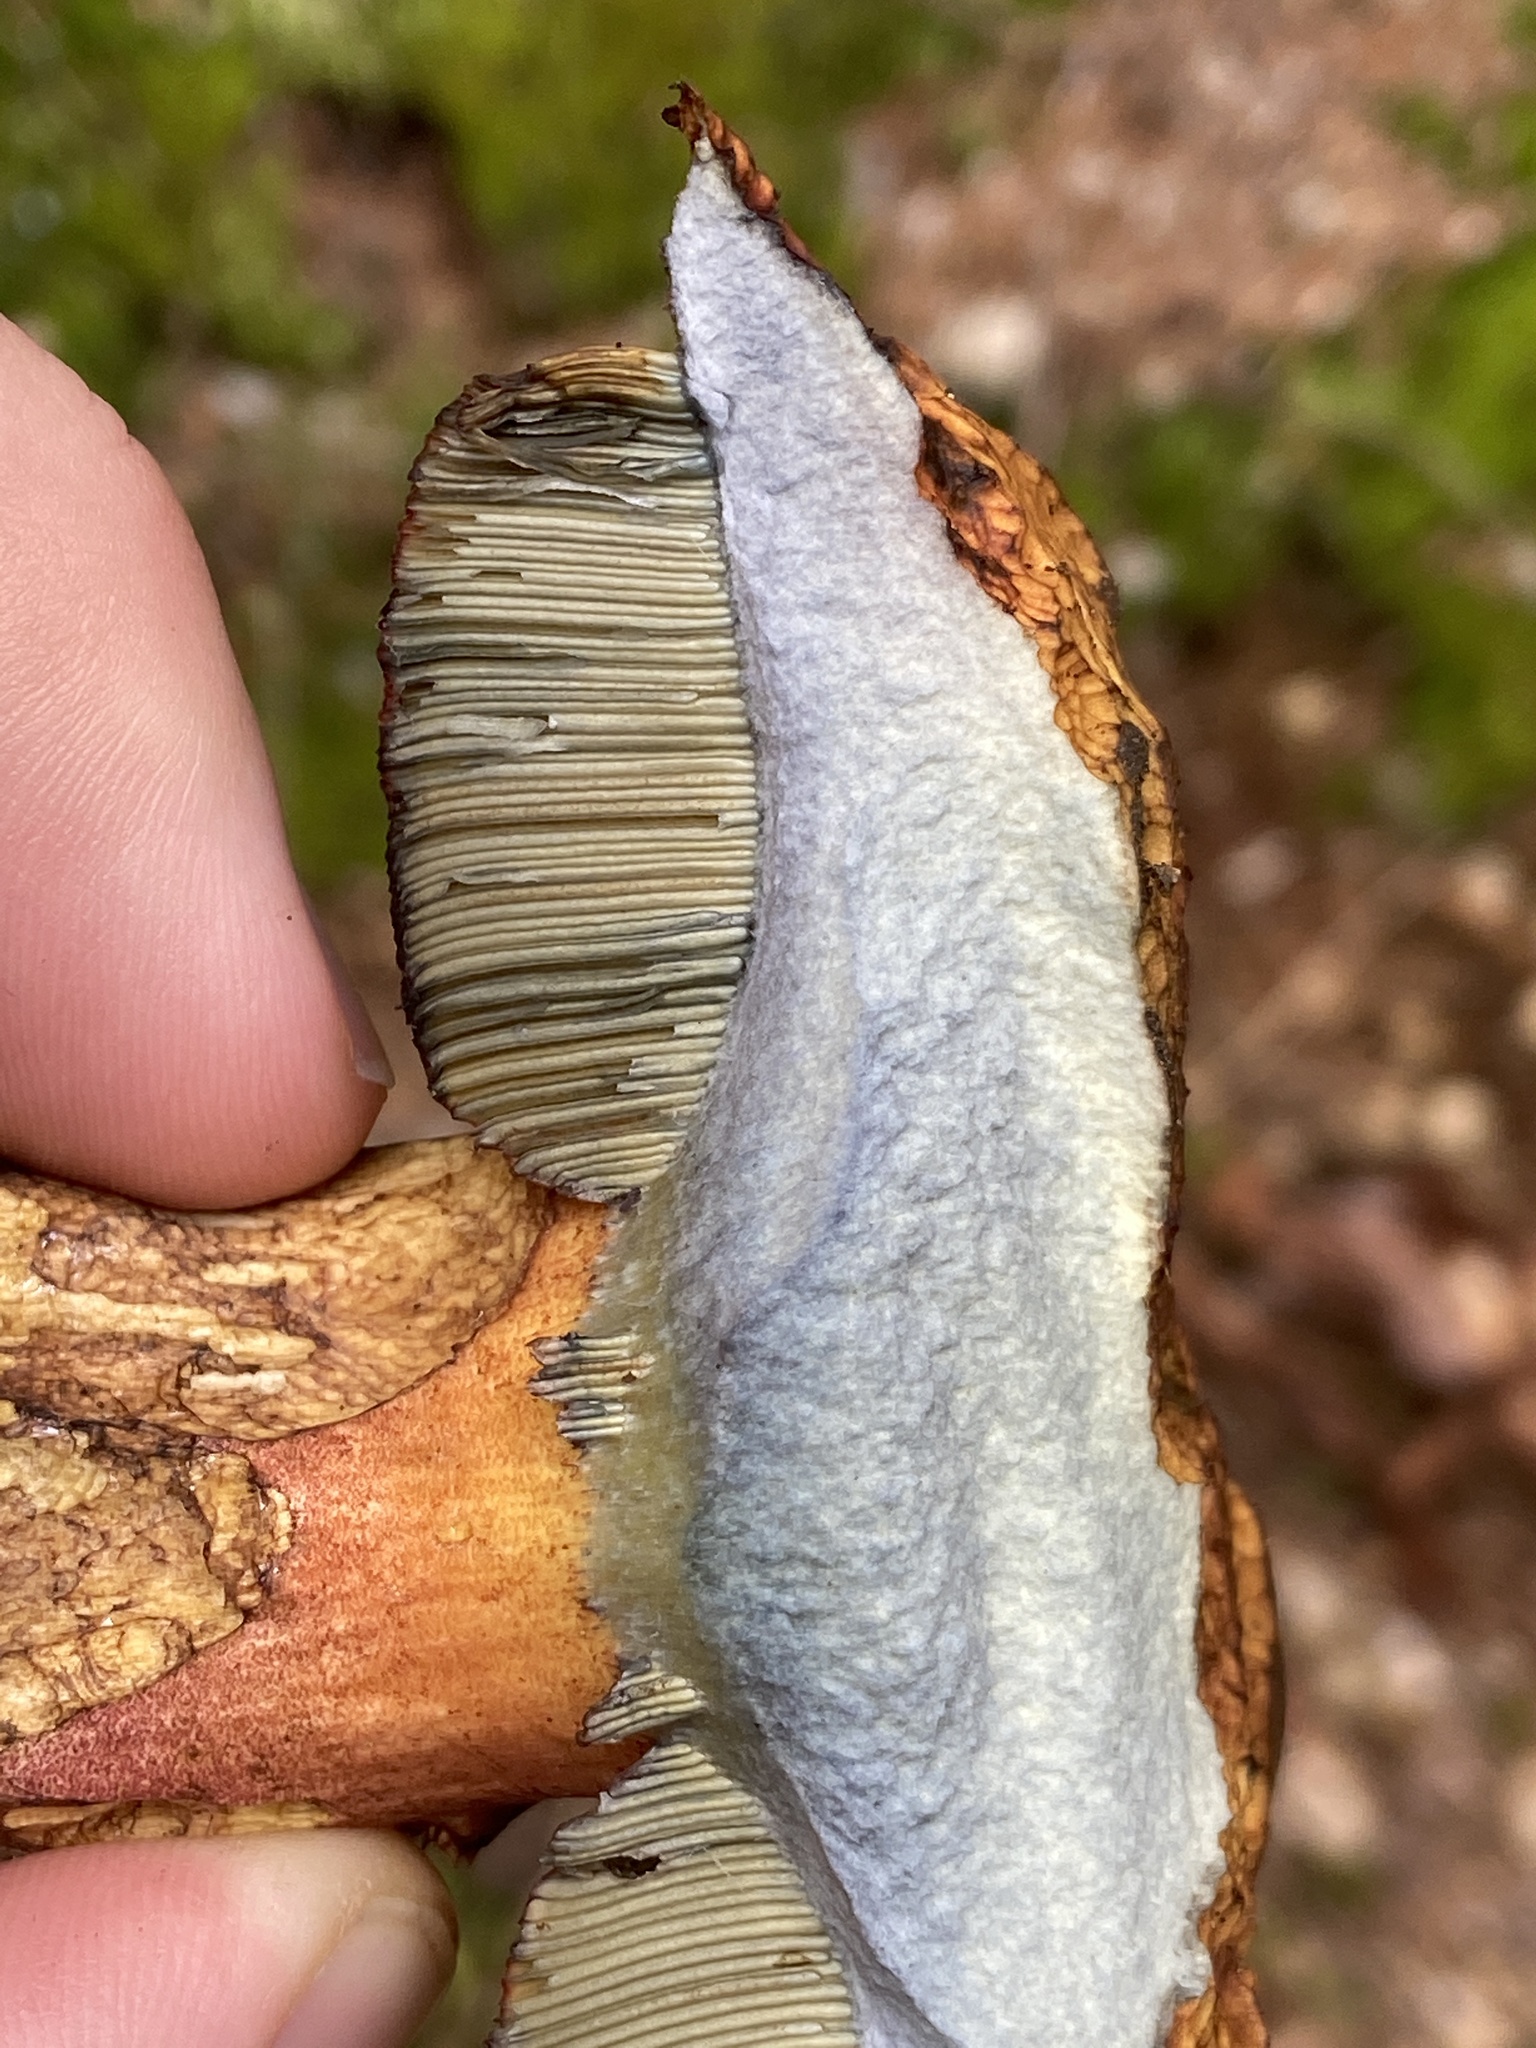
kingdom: Fungi
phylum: Basidiomycota
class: Agaricomycetes
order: Boletales
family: Boletaceae
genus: Neoboletus
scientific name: Neoboletus luridiformis
